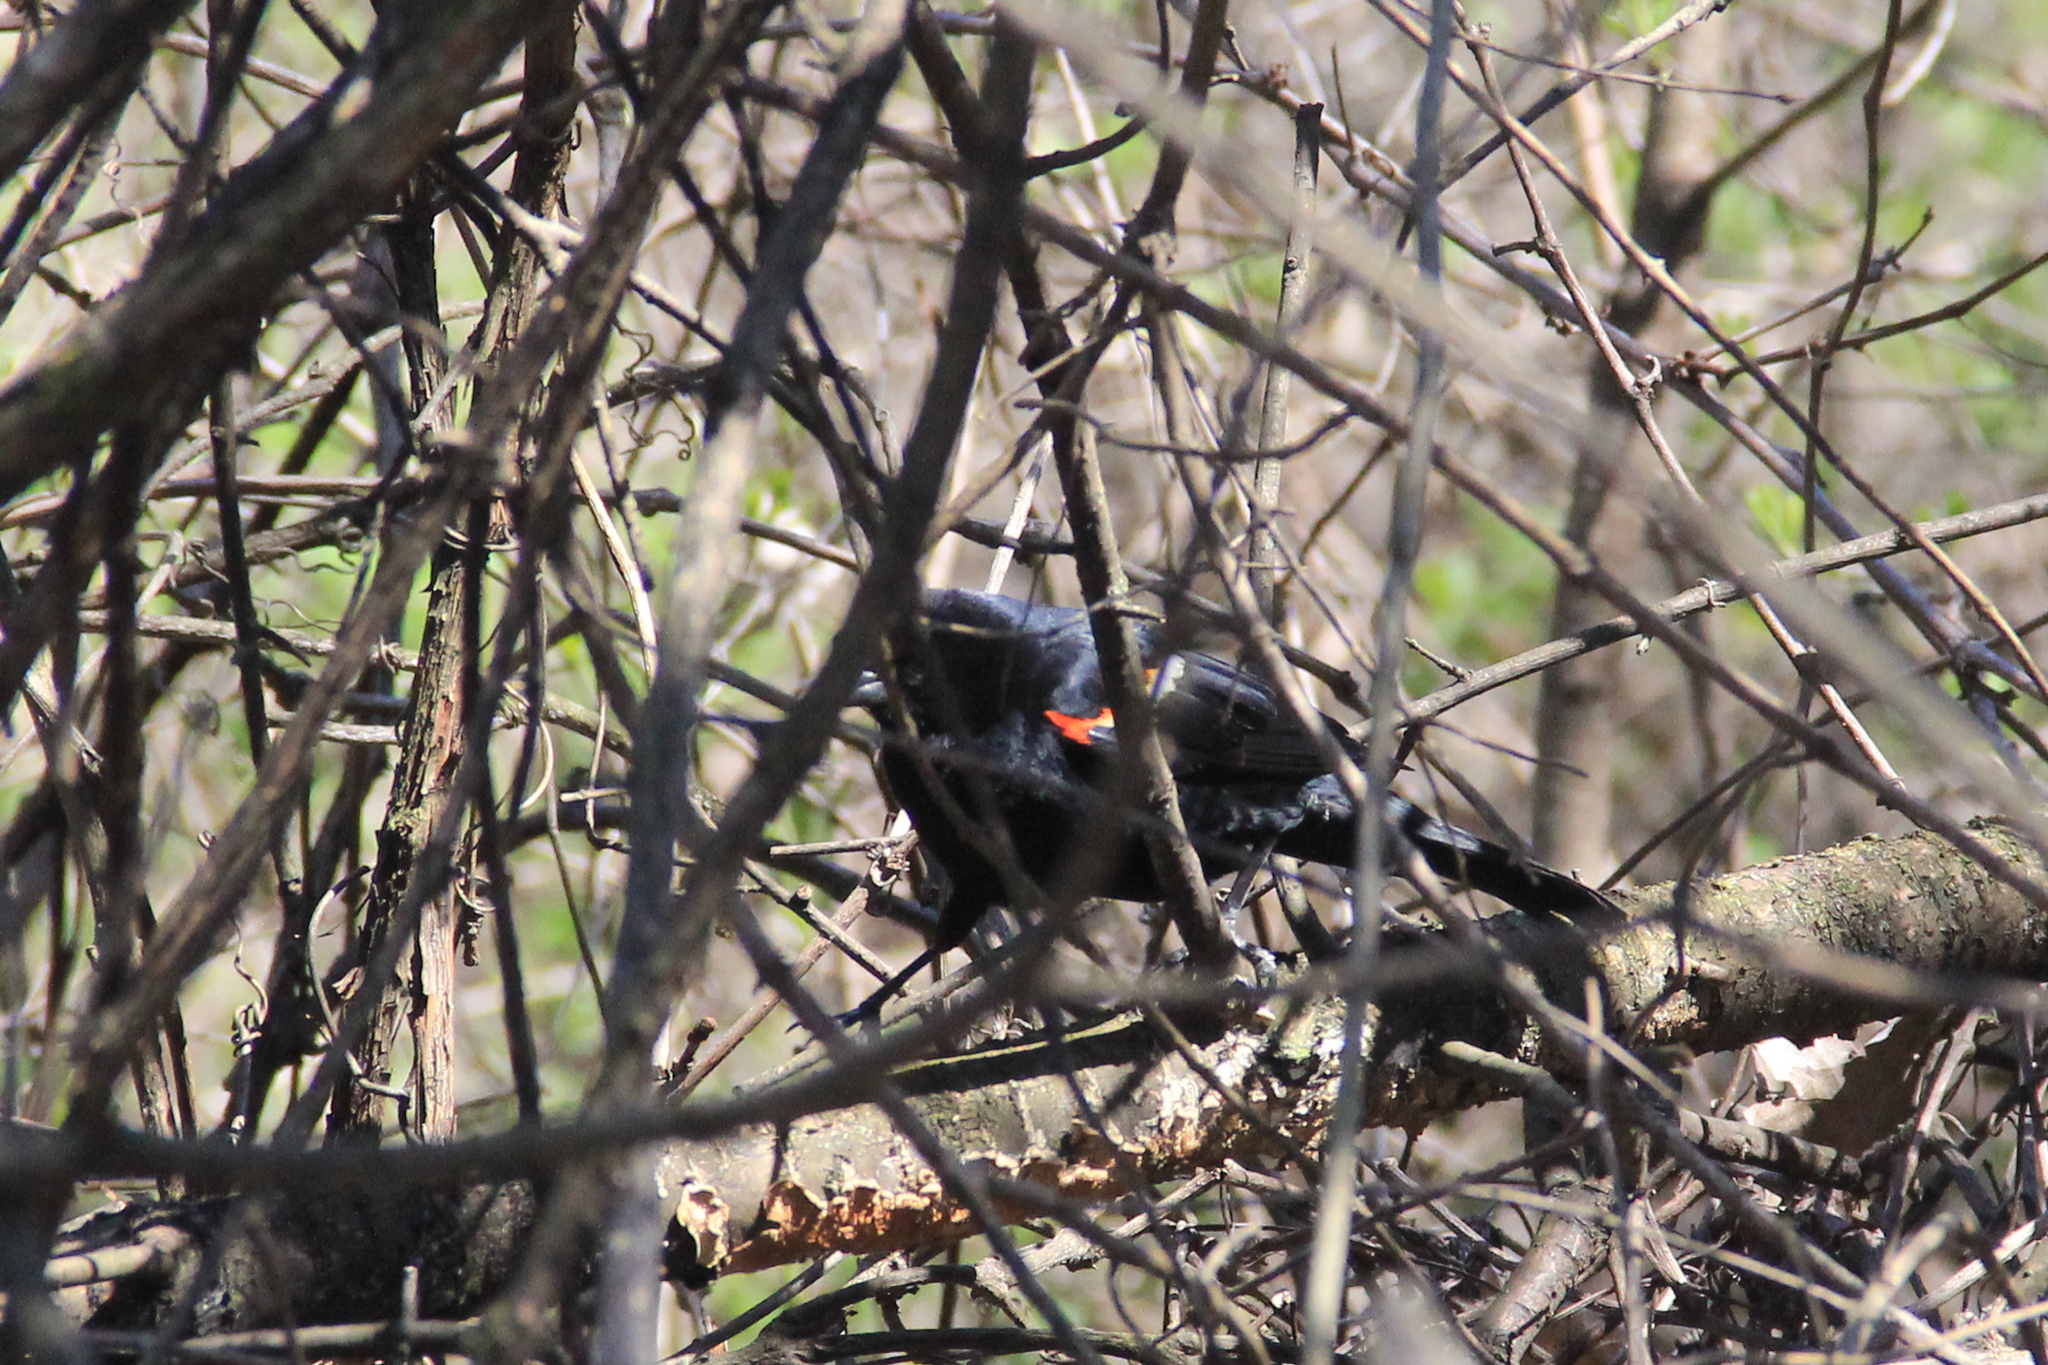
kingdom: Animalia
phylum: Chordata
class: Aves
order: Passeriformes
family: Icteridae
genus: Agelaius
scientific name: Agelaius phoeniceus
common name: Red-winged blackbird
